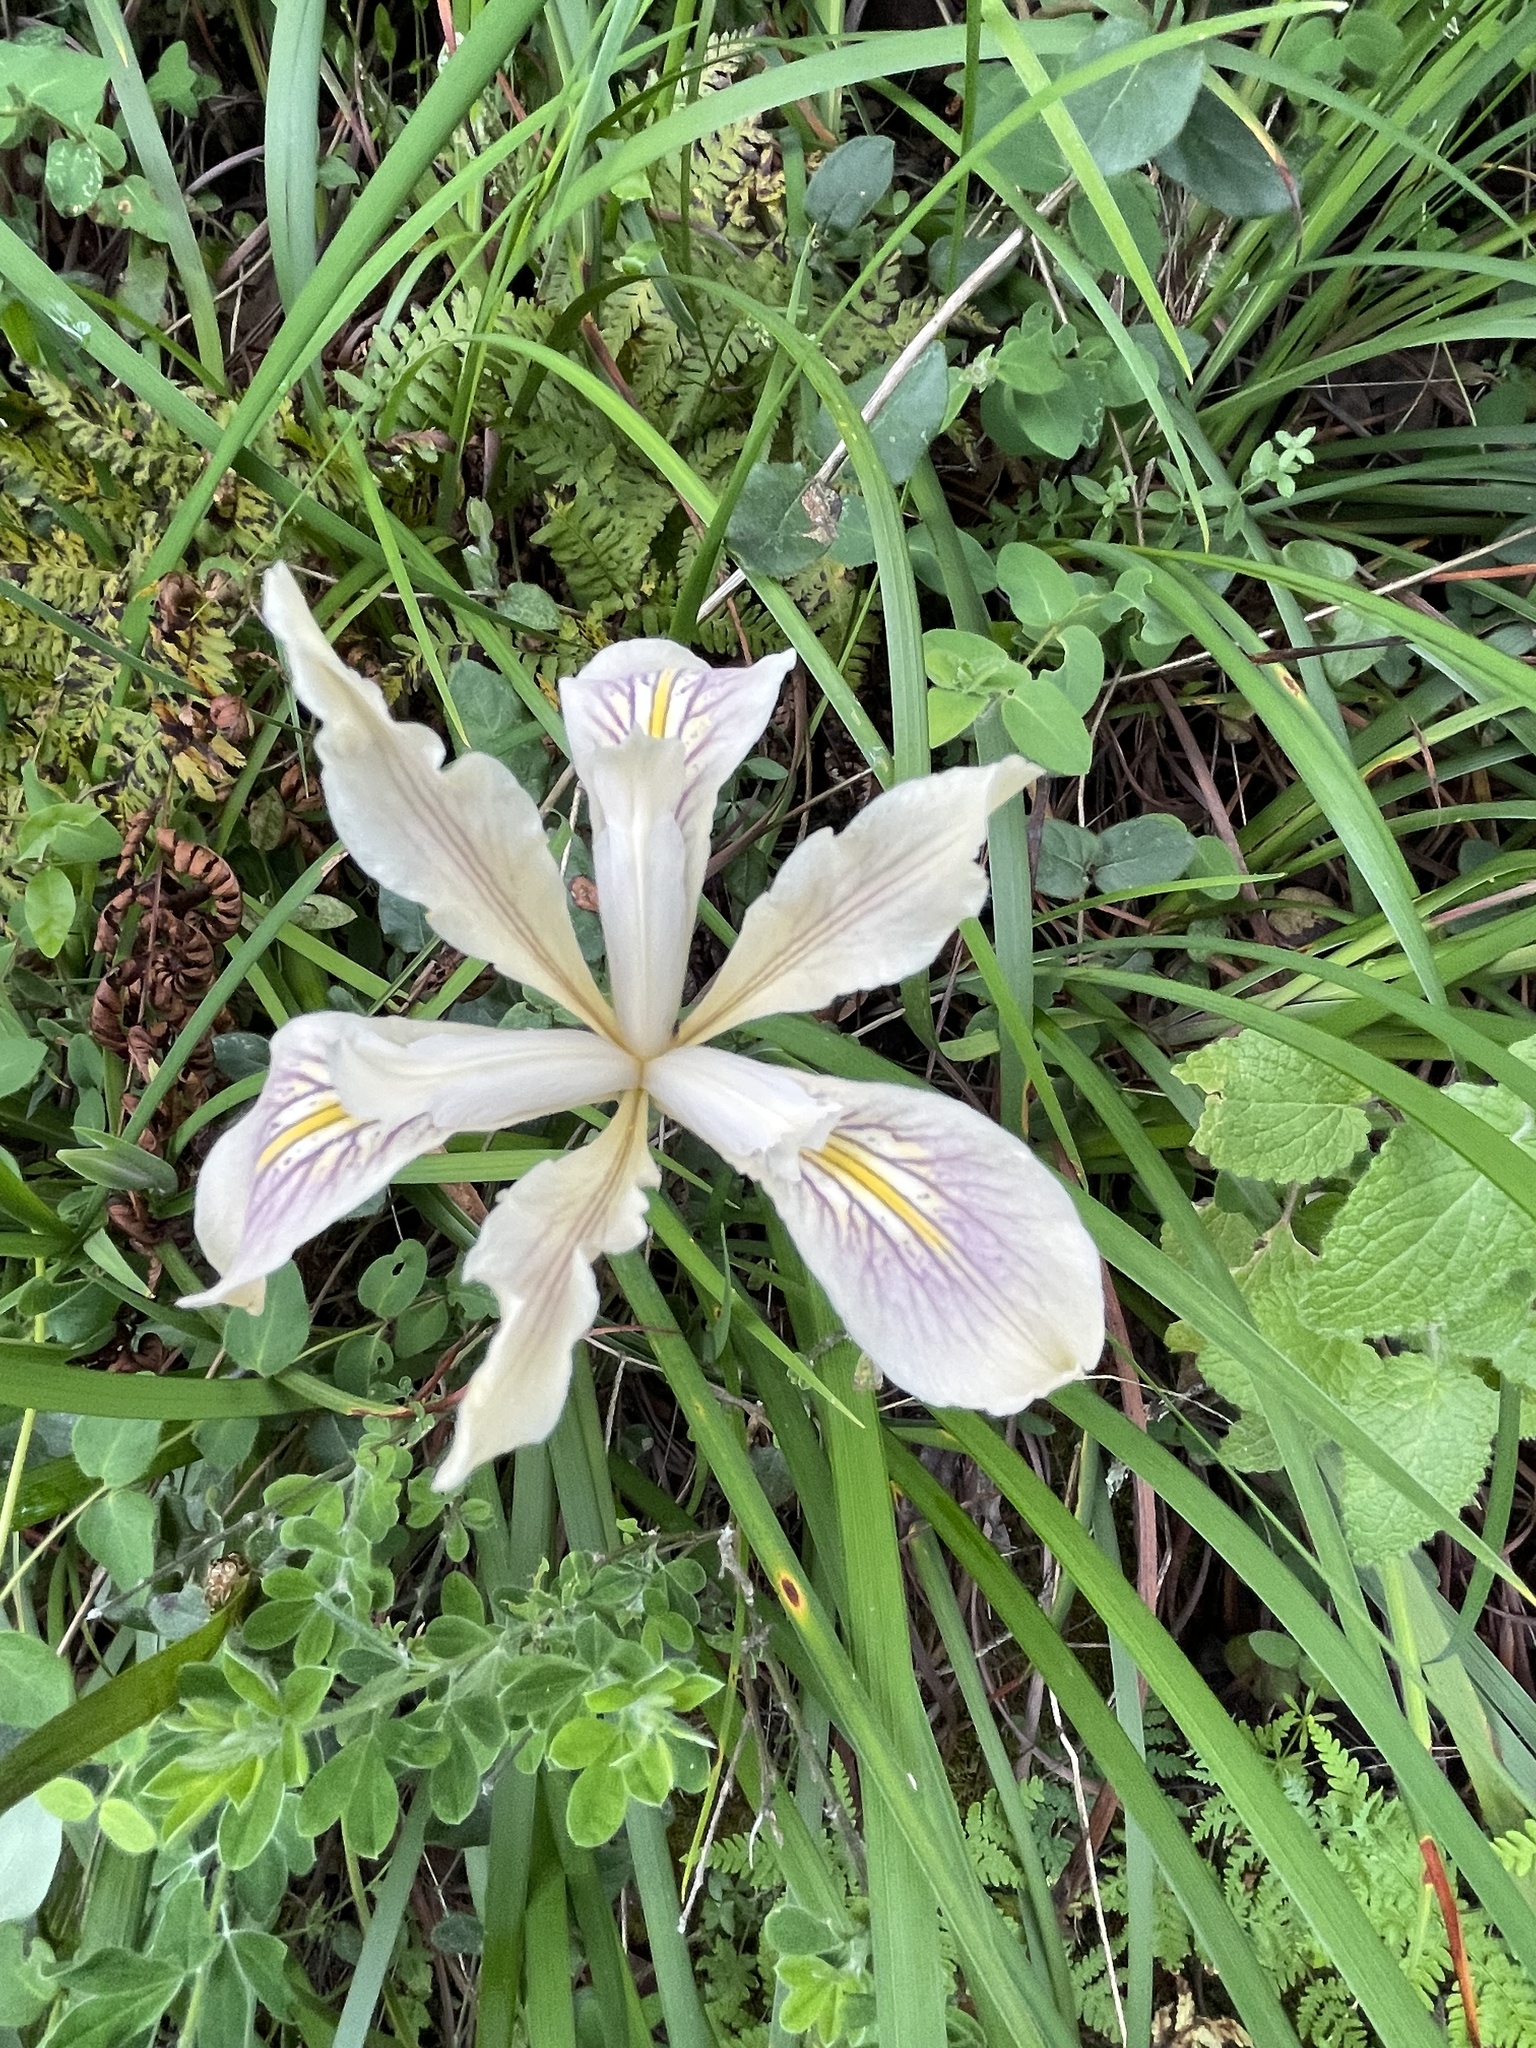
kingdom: Plantae
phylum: Tracheophyta
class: Liliopsida
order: Asparagales
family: Iridaceae
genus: Iris
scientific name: Iris douglasiana
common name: Marin iris
